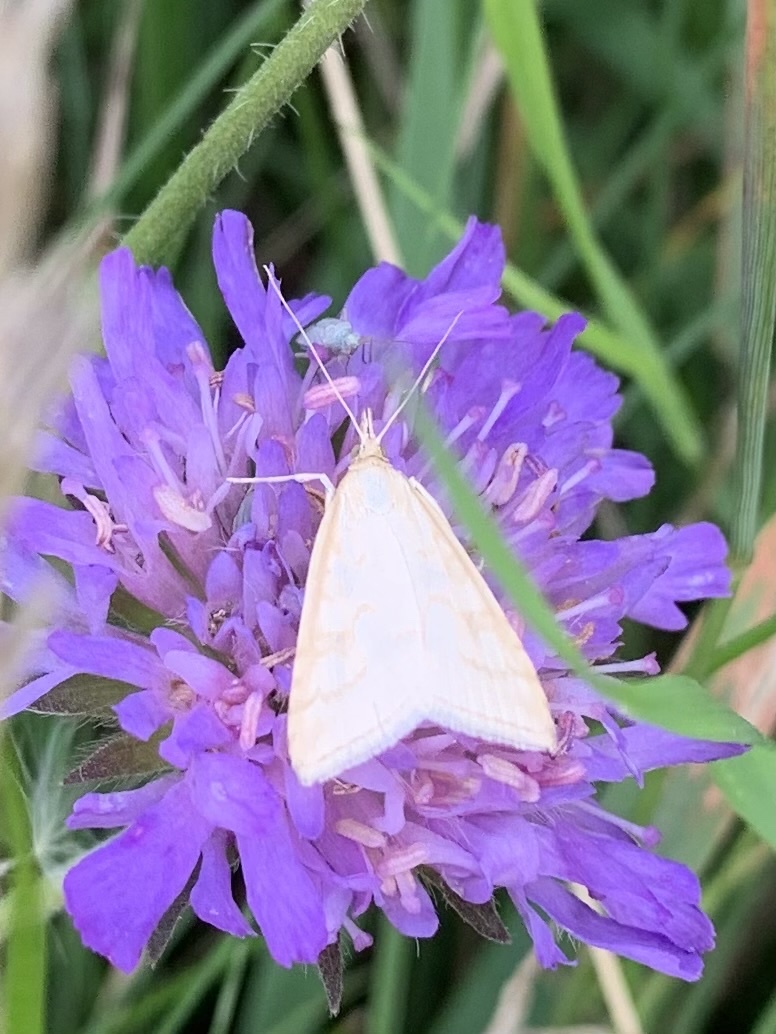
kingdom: Animalia
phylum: Arthropoda
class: Insecta
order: Lepidoptera
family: Crambidae
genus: Udea
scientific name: Udea lutealis
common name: Pale straw pearl
